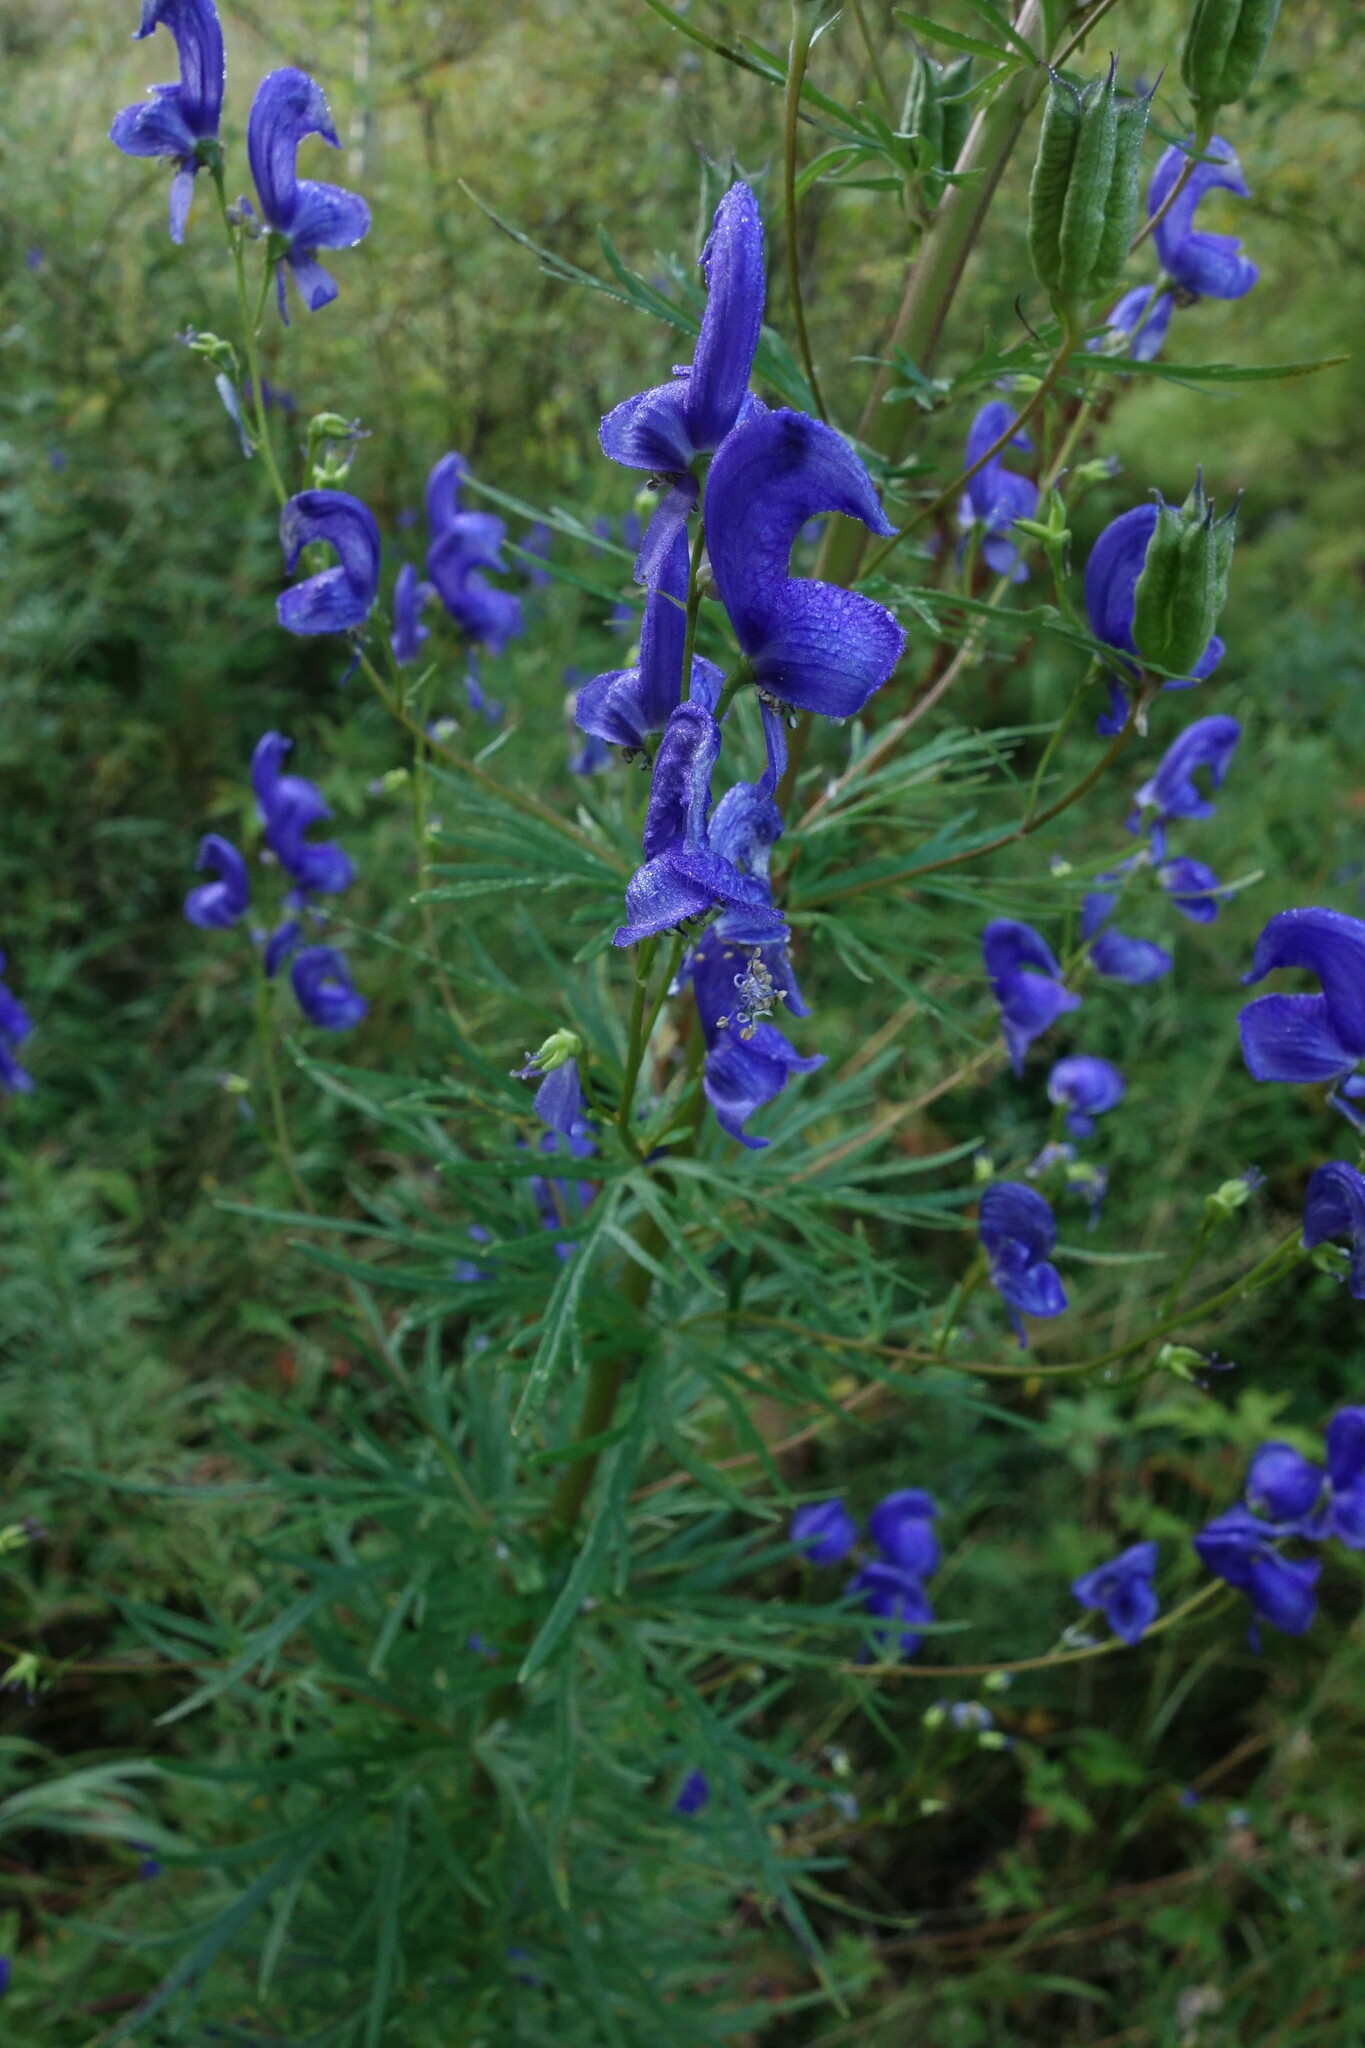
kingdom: Plantae
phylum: Tracheophyta
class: Magnoliopsida
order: Ranunculales
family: Ranunculaceae
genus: Aconitum
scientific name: Aconitum baicalense
